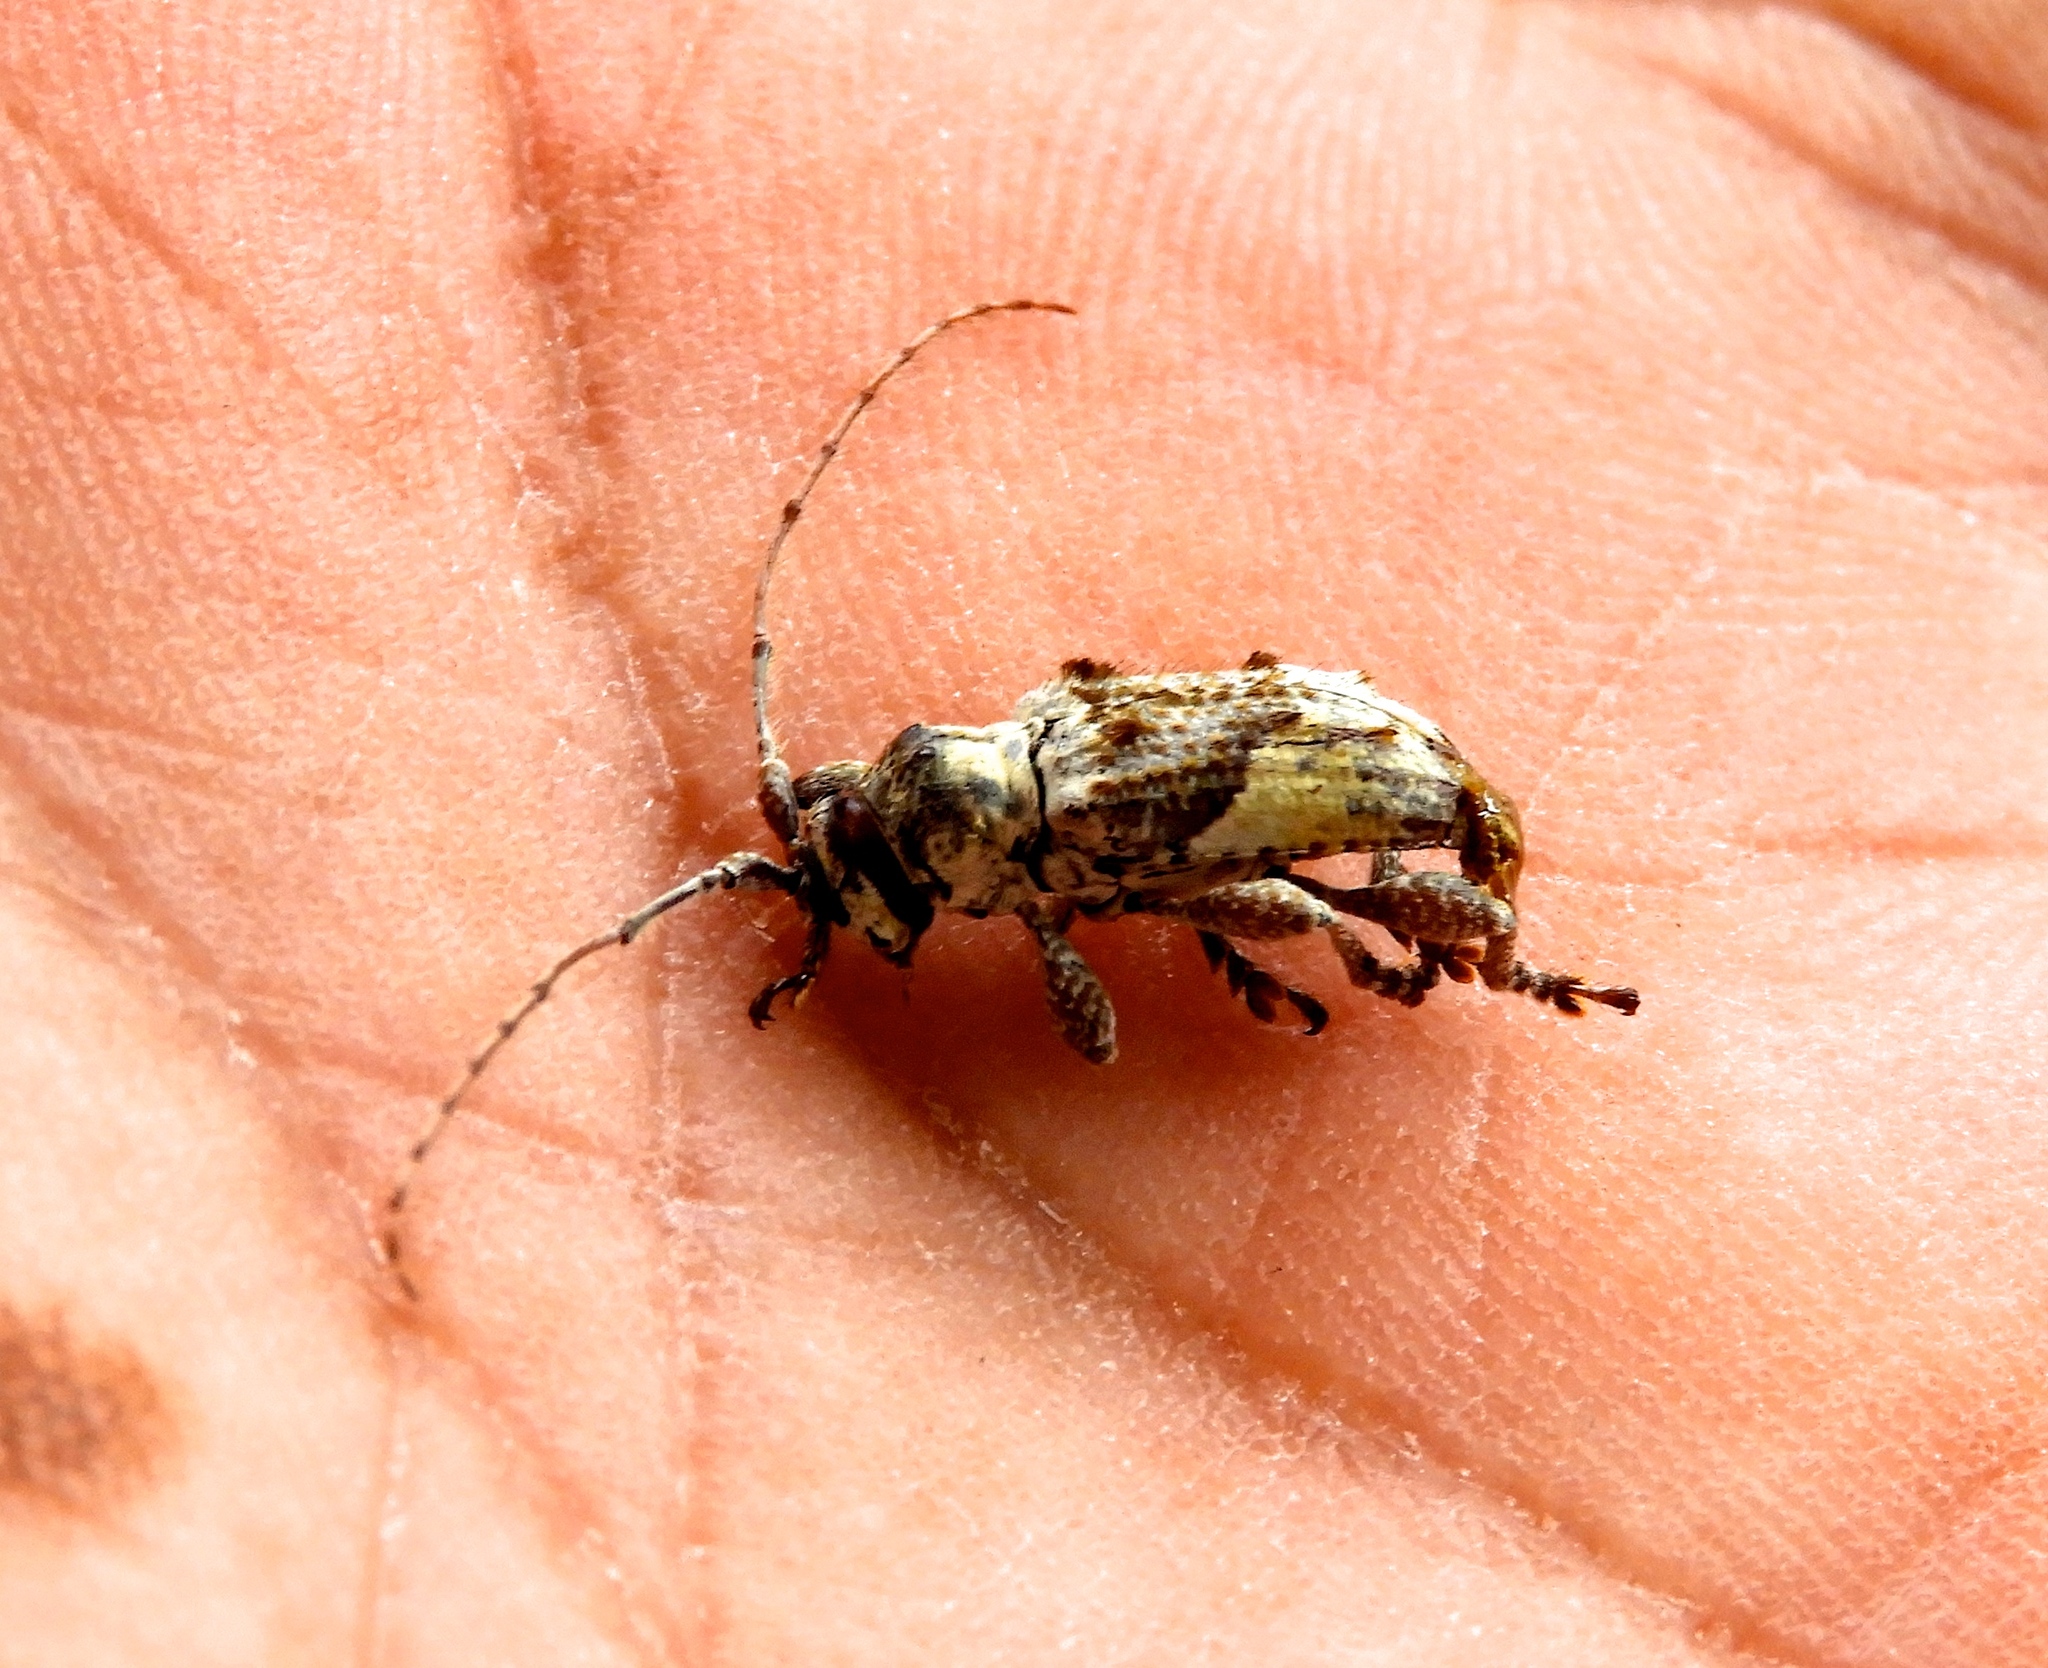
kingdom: Animalia
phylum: Arthropoda
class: Insecta
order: Coleoptera
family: Cerambycidae
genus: Hypomia
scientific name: Hypomia
